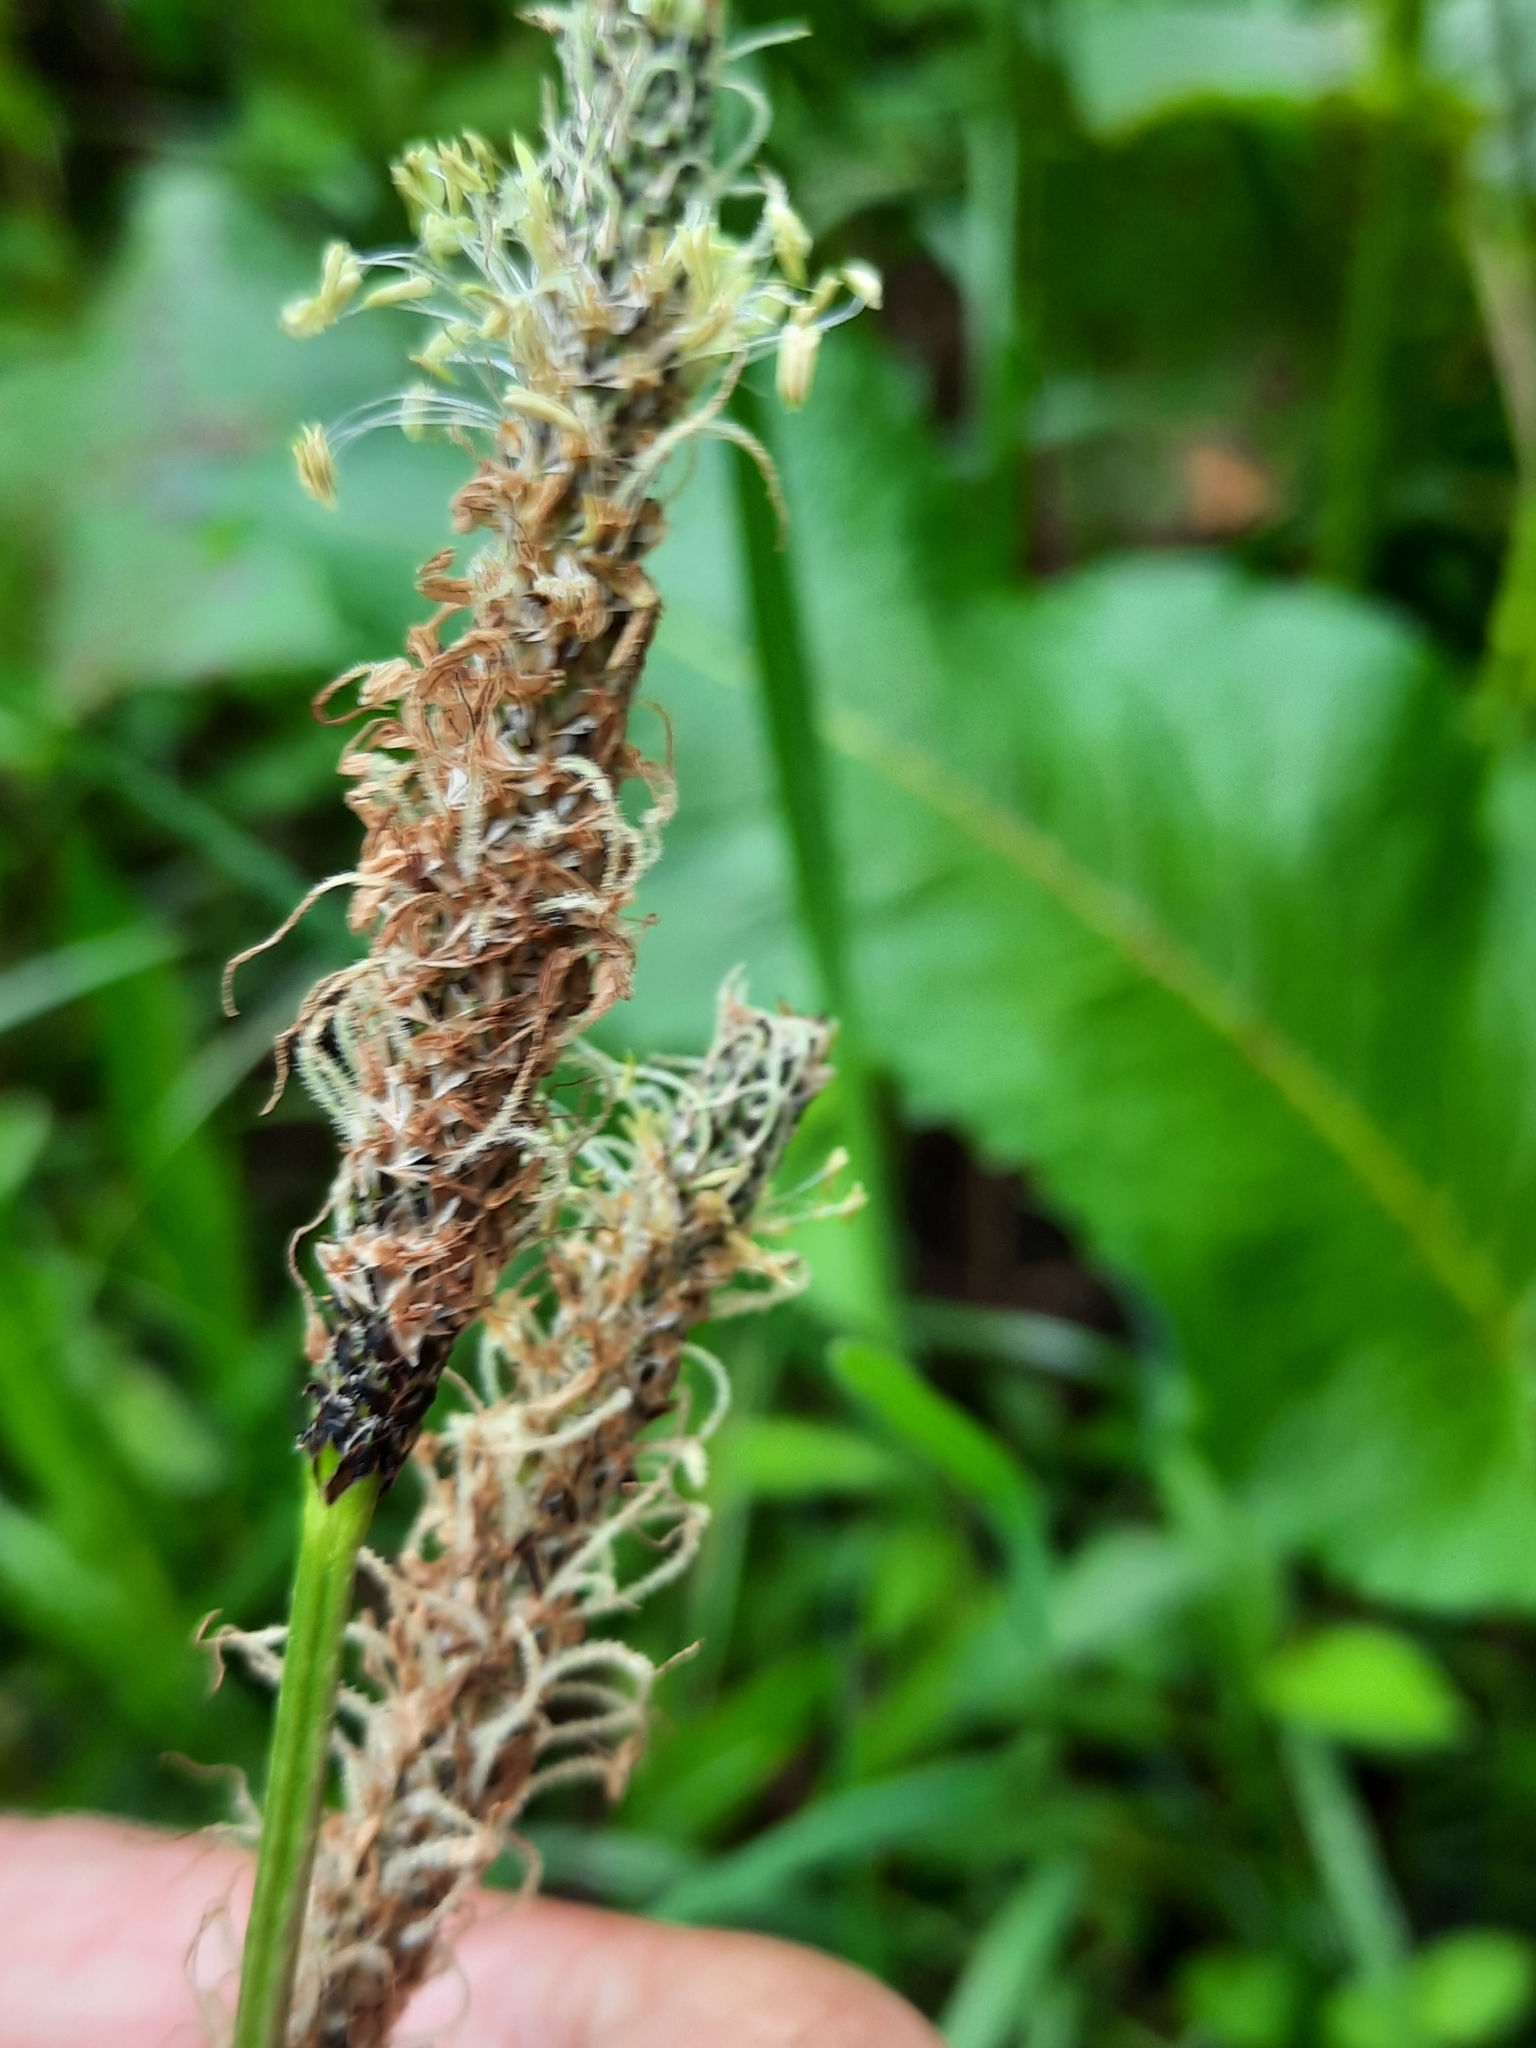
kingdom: Plantae
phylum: Tracheophyta
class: Magnoliopsida
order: Lamiales
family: Plantaginaceae
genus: Plantago
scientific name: Plantago lanceolata
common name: Ribwort plantain
